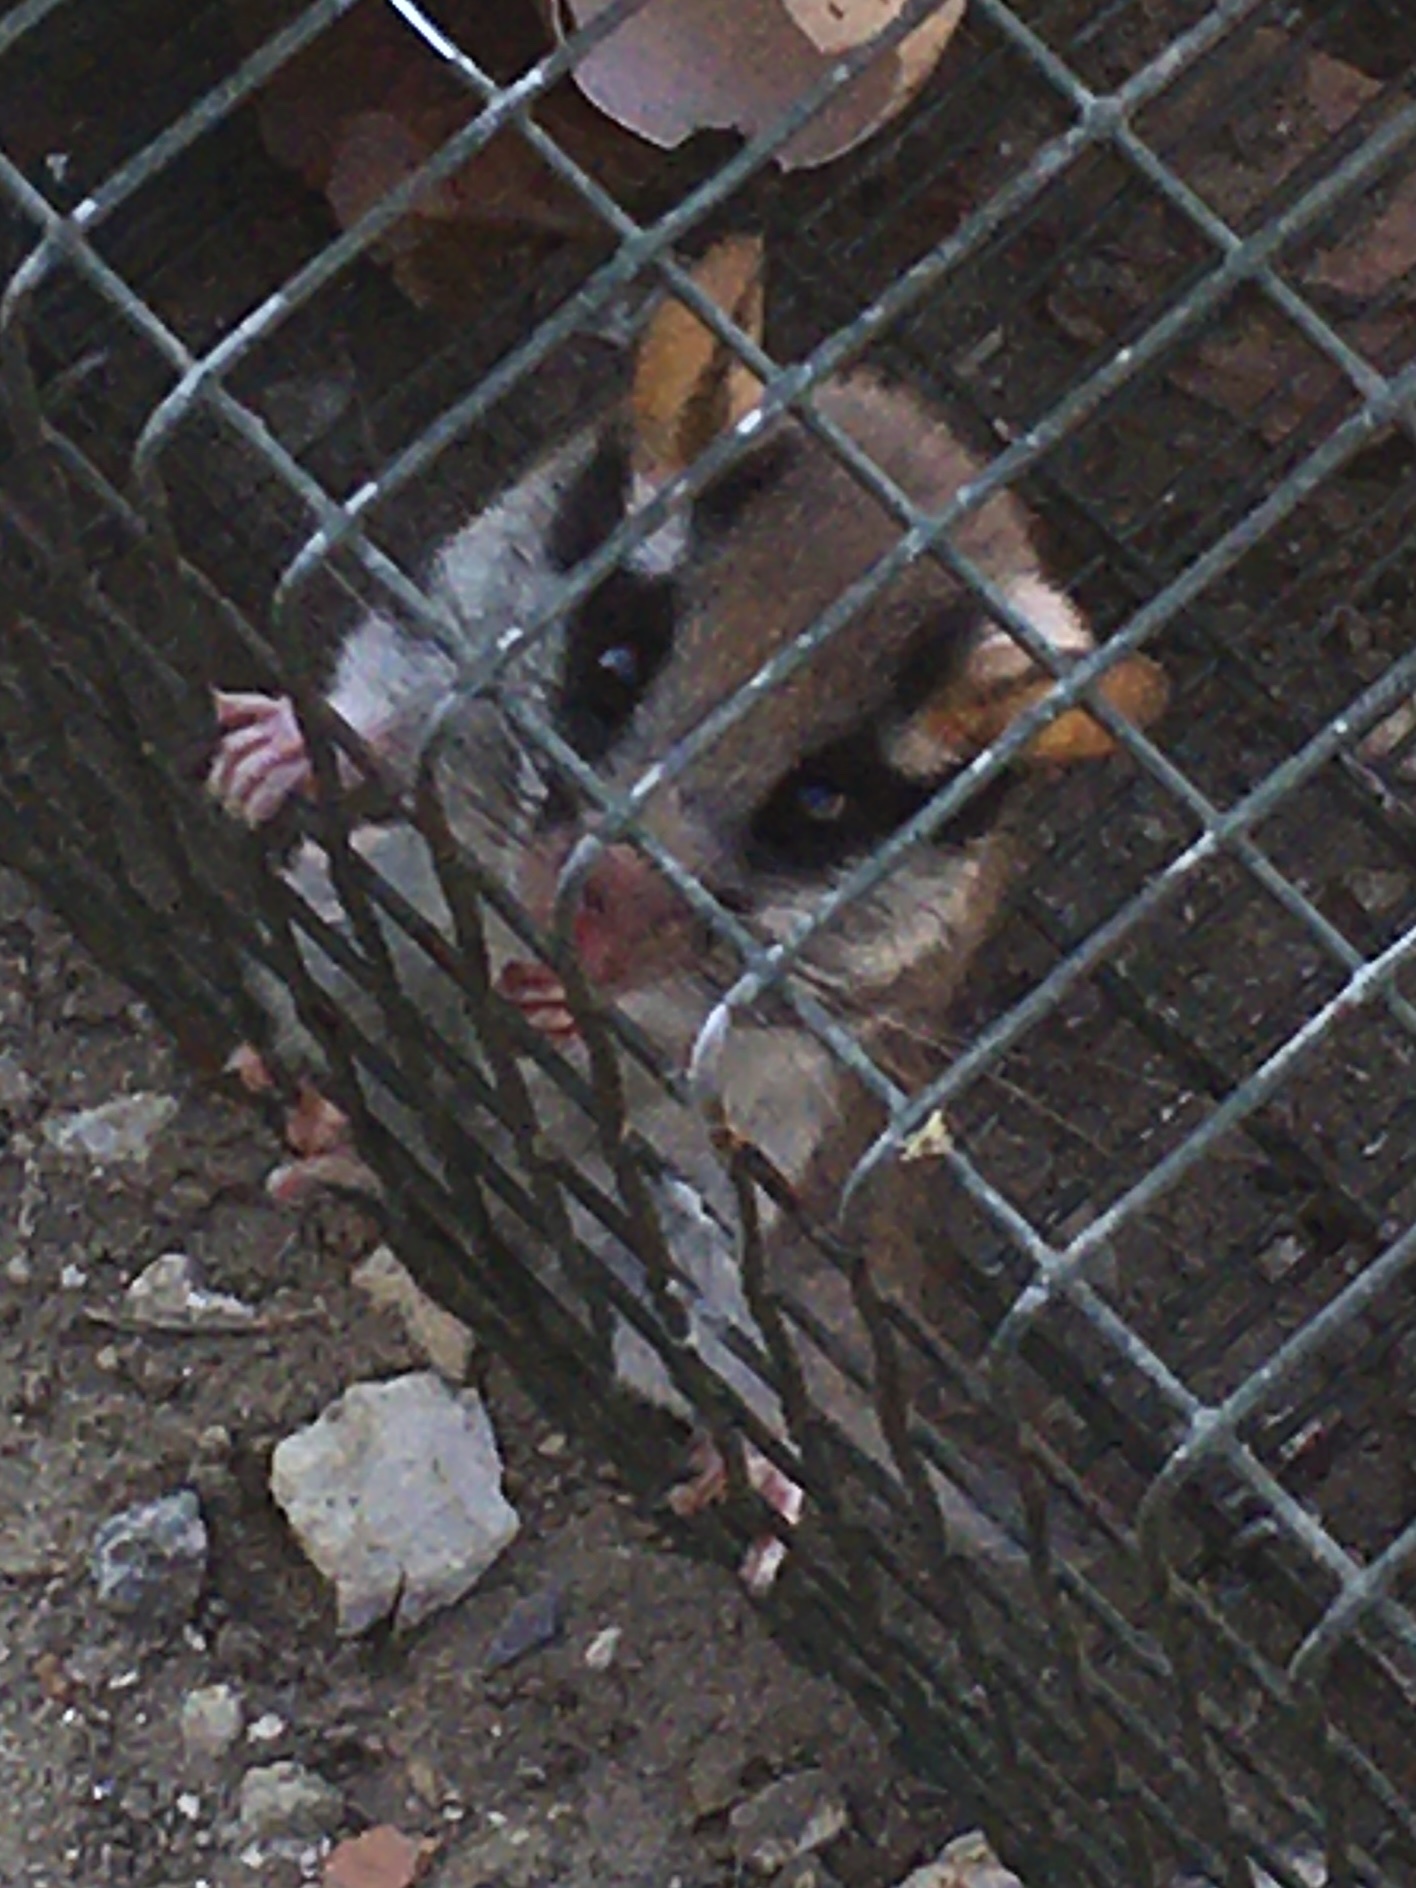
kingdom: Animalia
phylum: Chordata
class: Mammalia
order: Rodentia
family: Gliridae
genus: Eliomys
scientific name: Eliomys quercinus
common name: Garden dormouse
